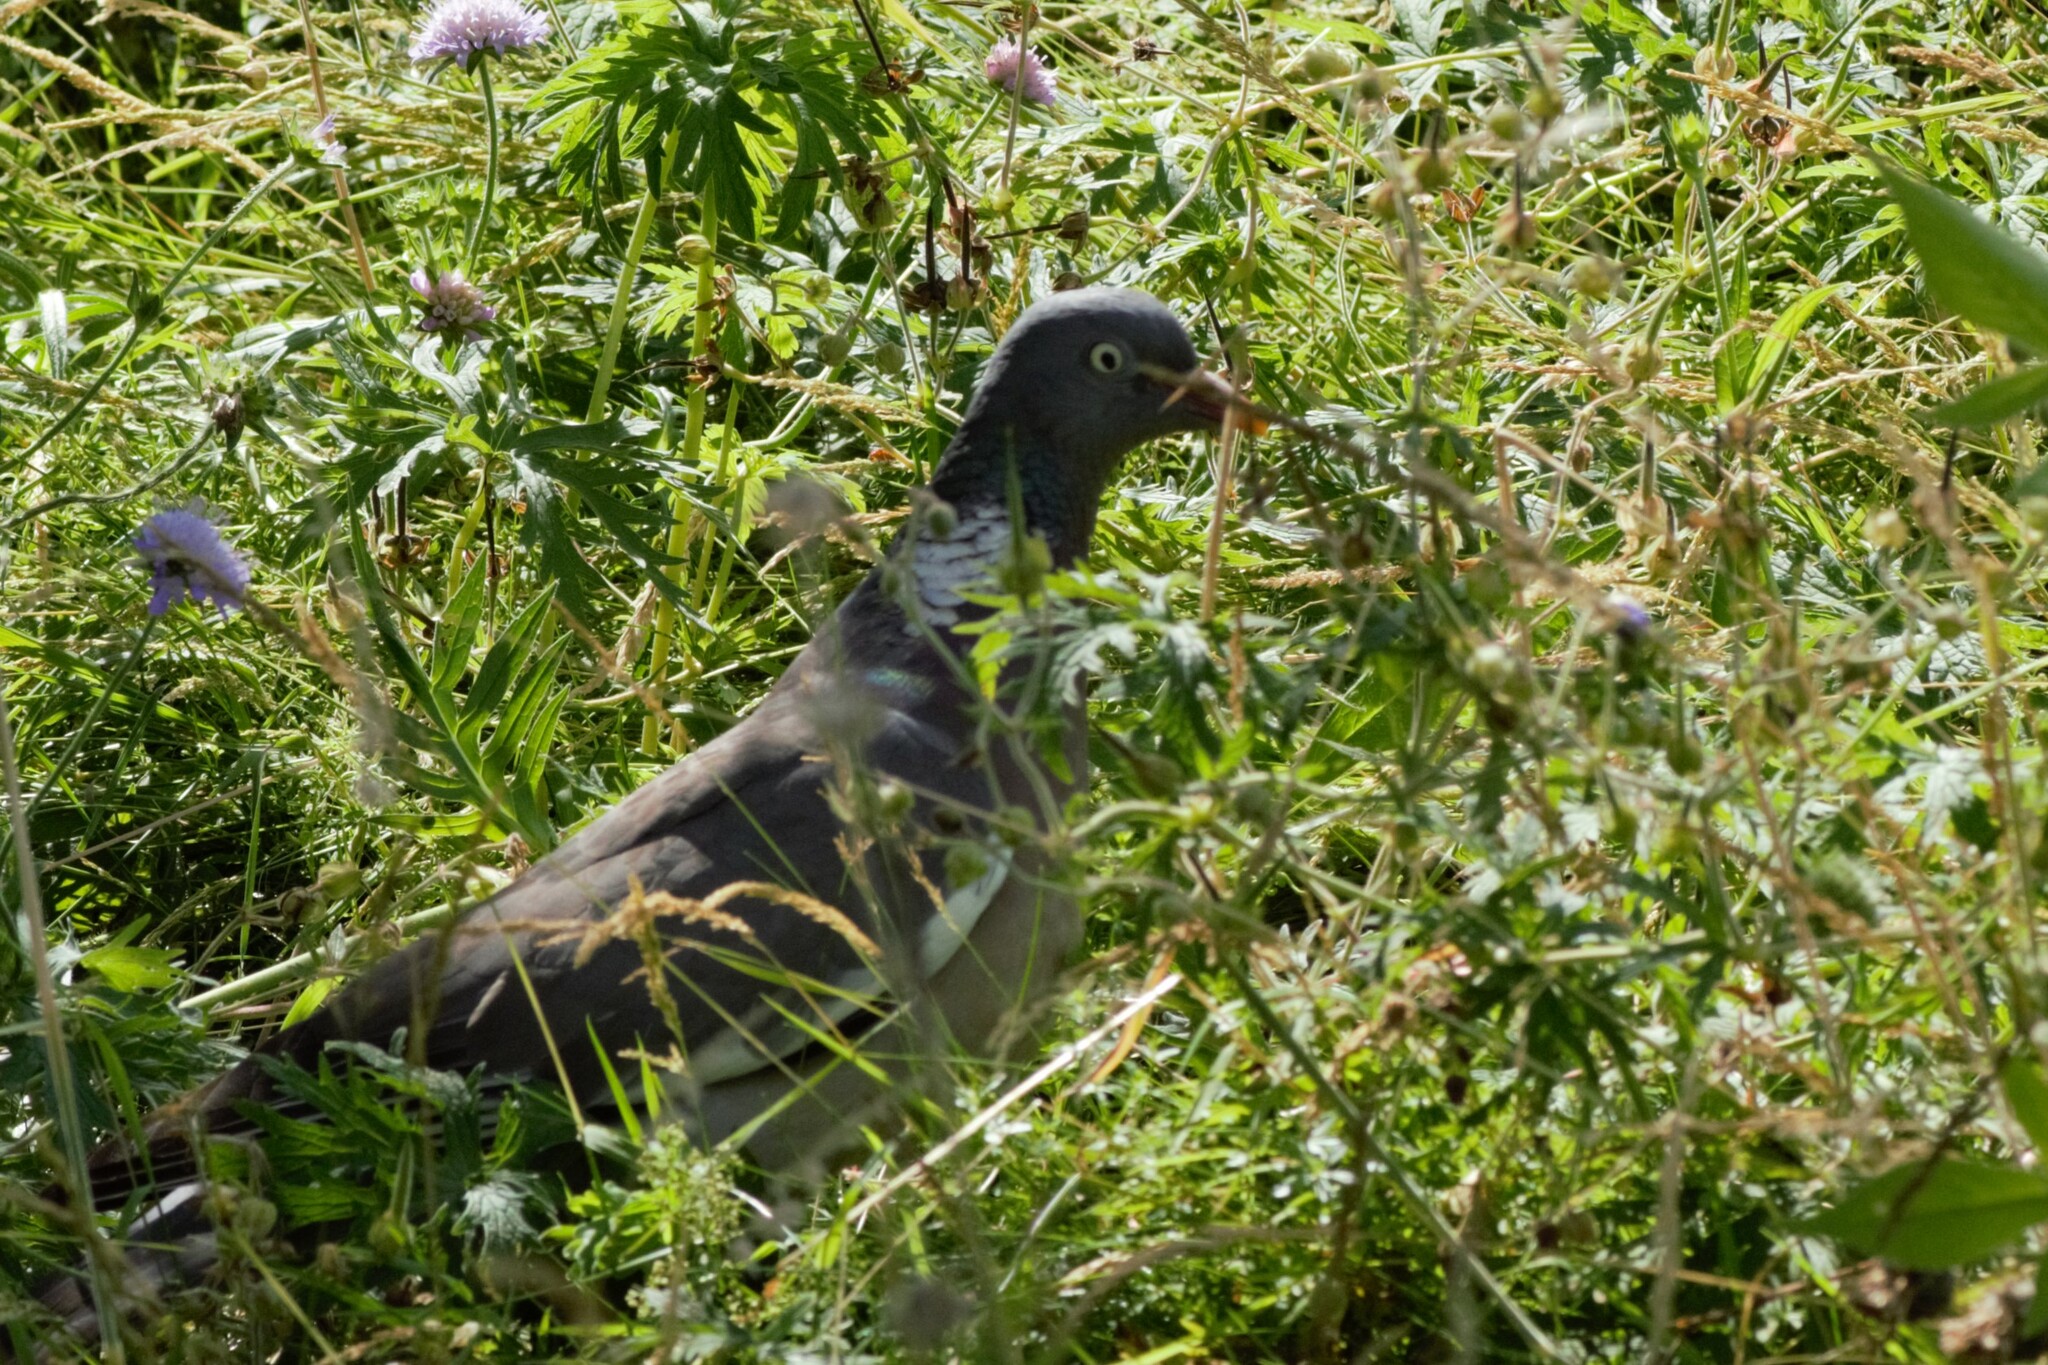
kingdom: Animalia
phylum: Chordata
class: Aves
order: Columbiformes
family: Columbidae
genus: Columba
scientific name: Columba palumbus
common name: Common wood pigeon
